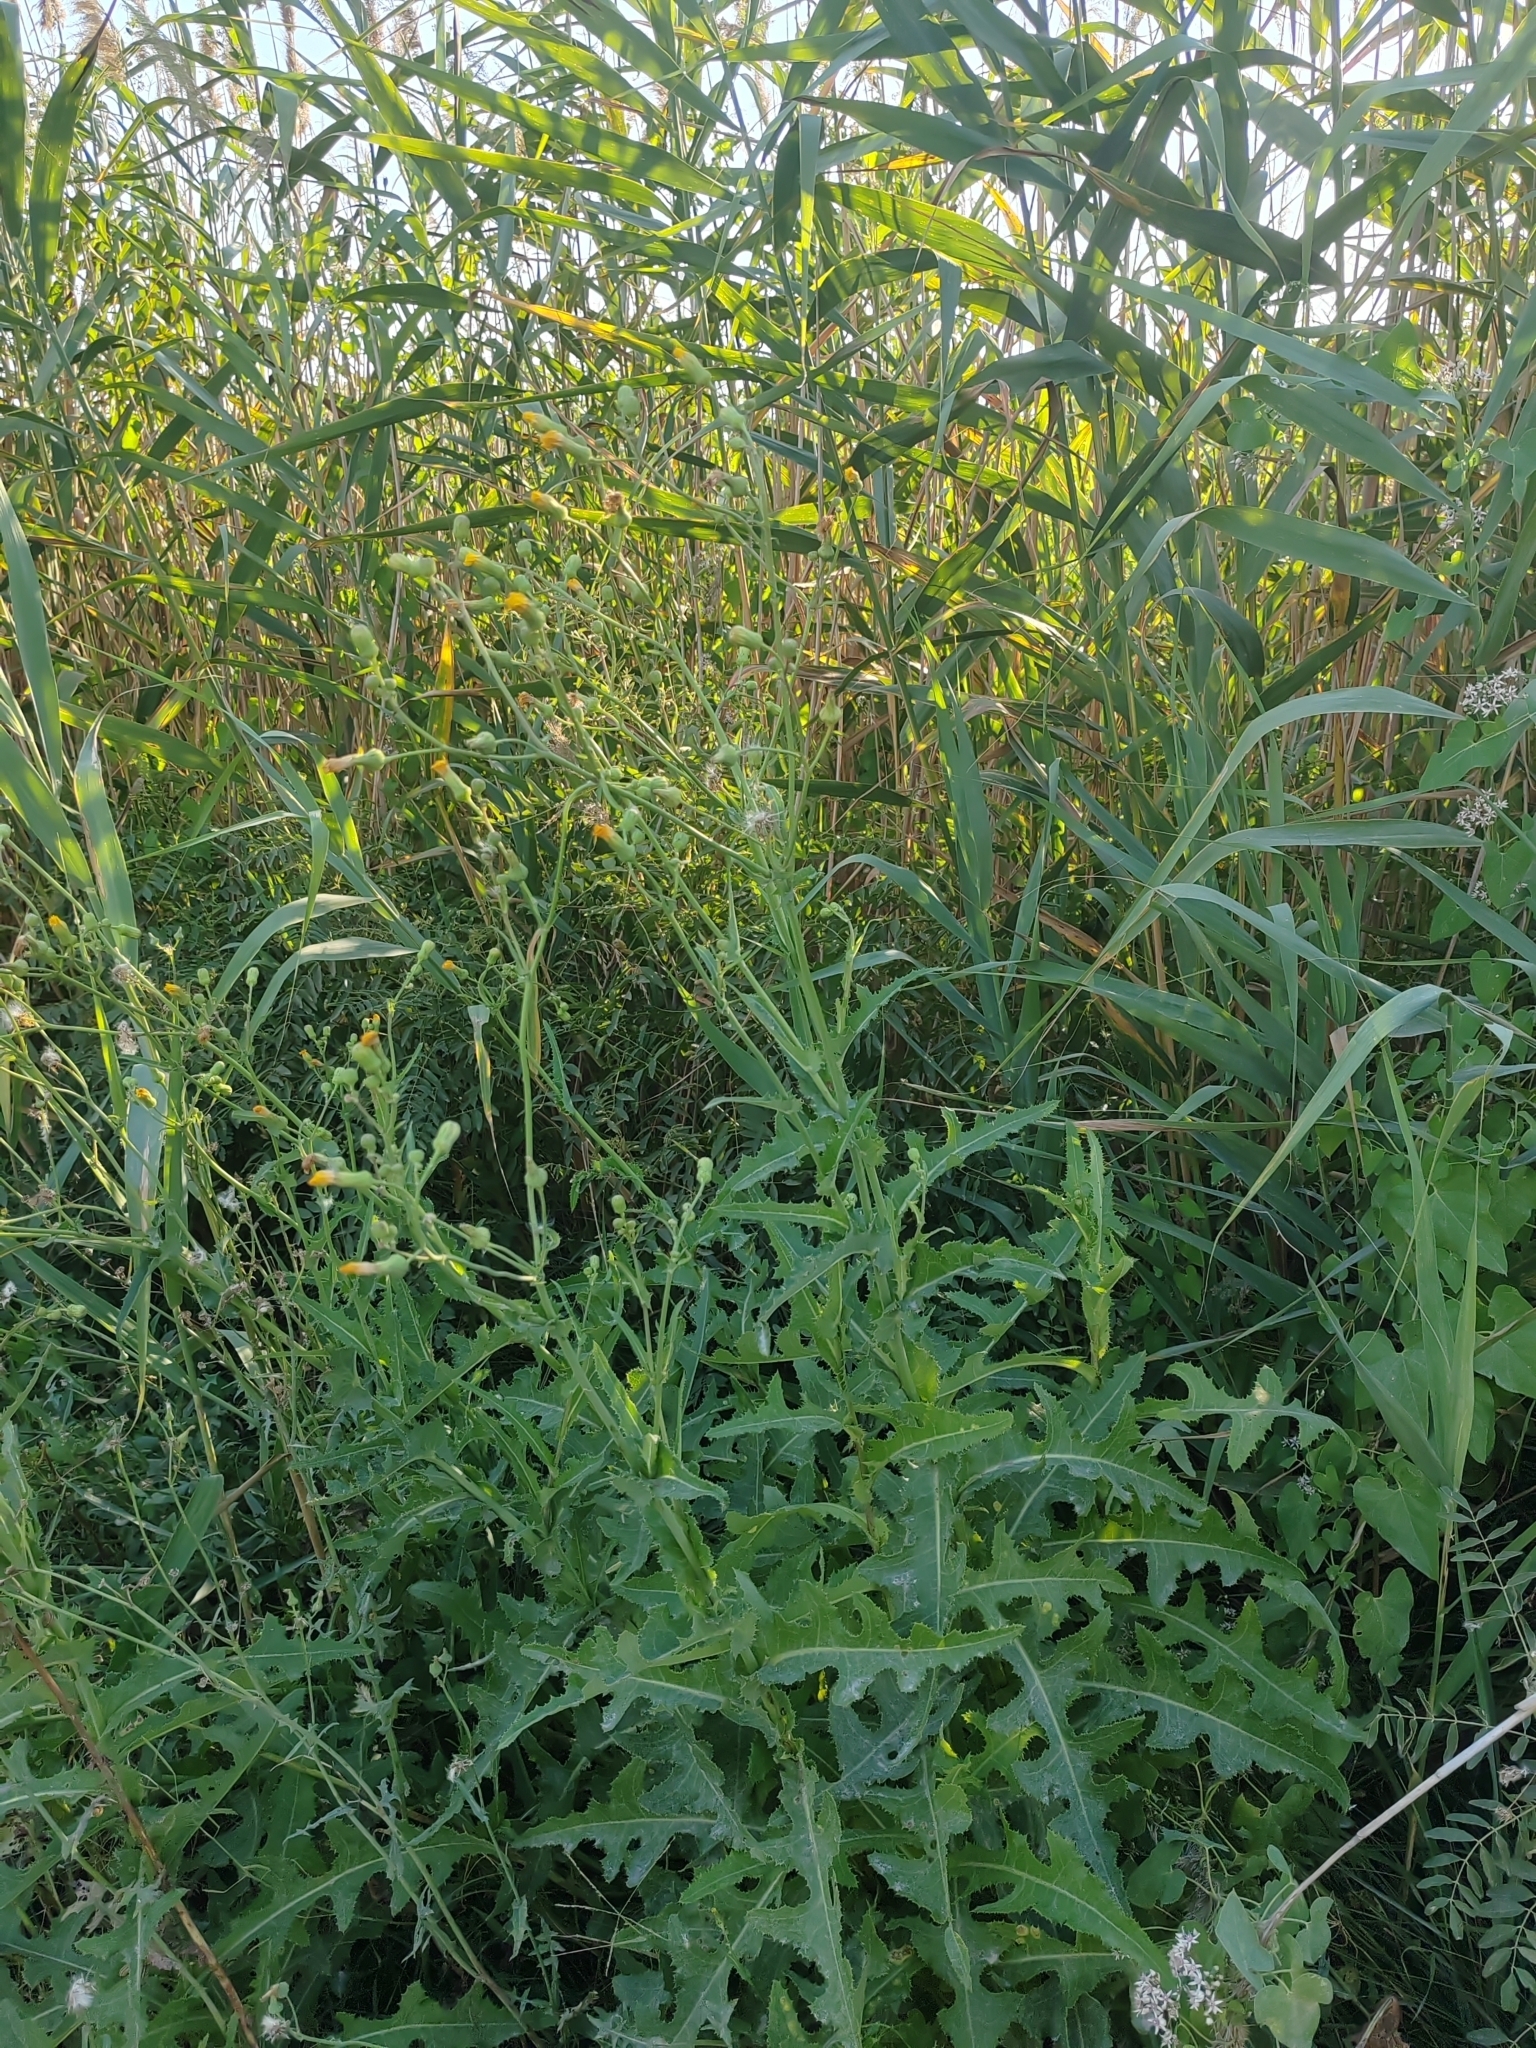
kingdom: Plantae
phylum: Tracheophyta
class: Magnoliopsida
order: Asterales
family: Asteraceae
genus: Sonchus
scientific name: Sonchus arvensis
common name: Perennial sow-thistle
